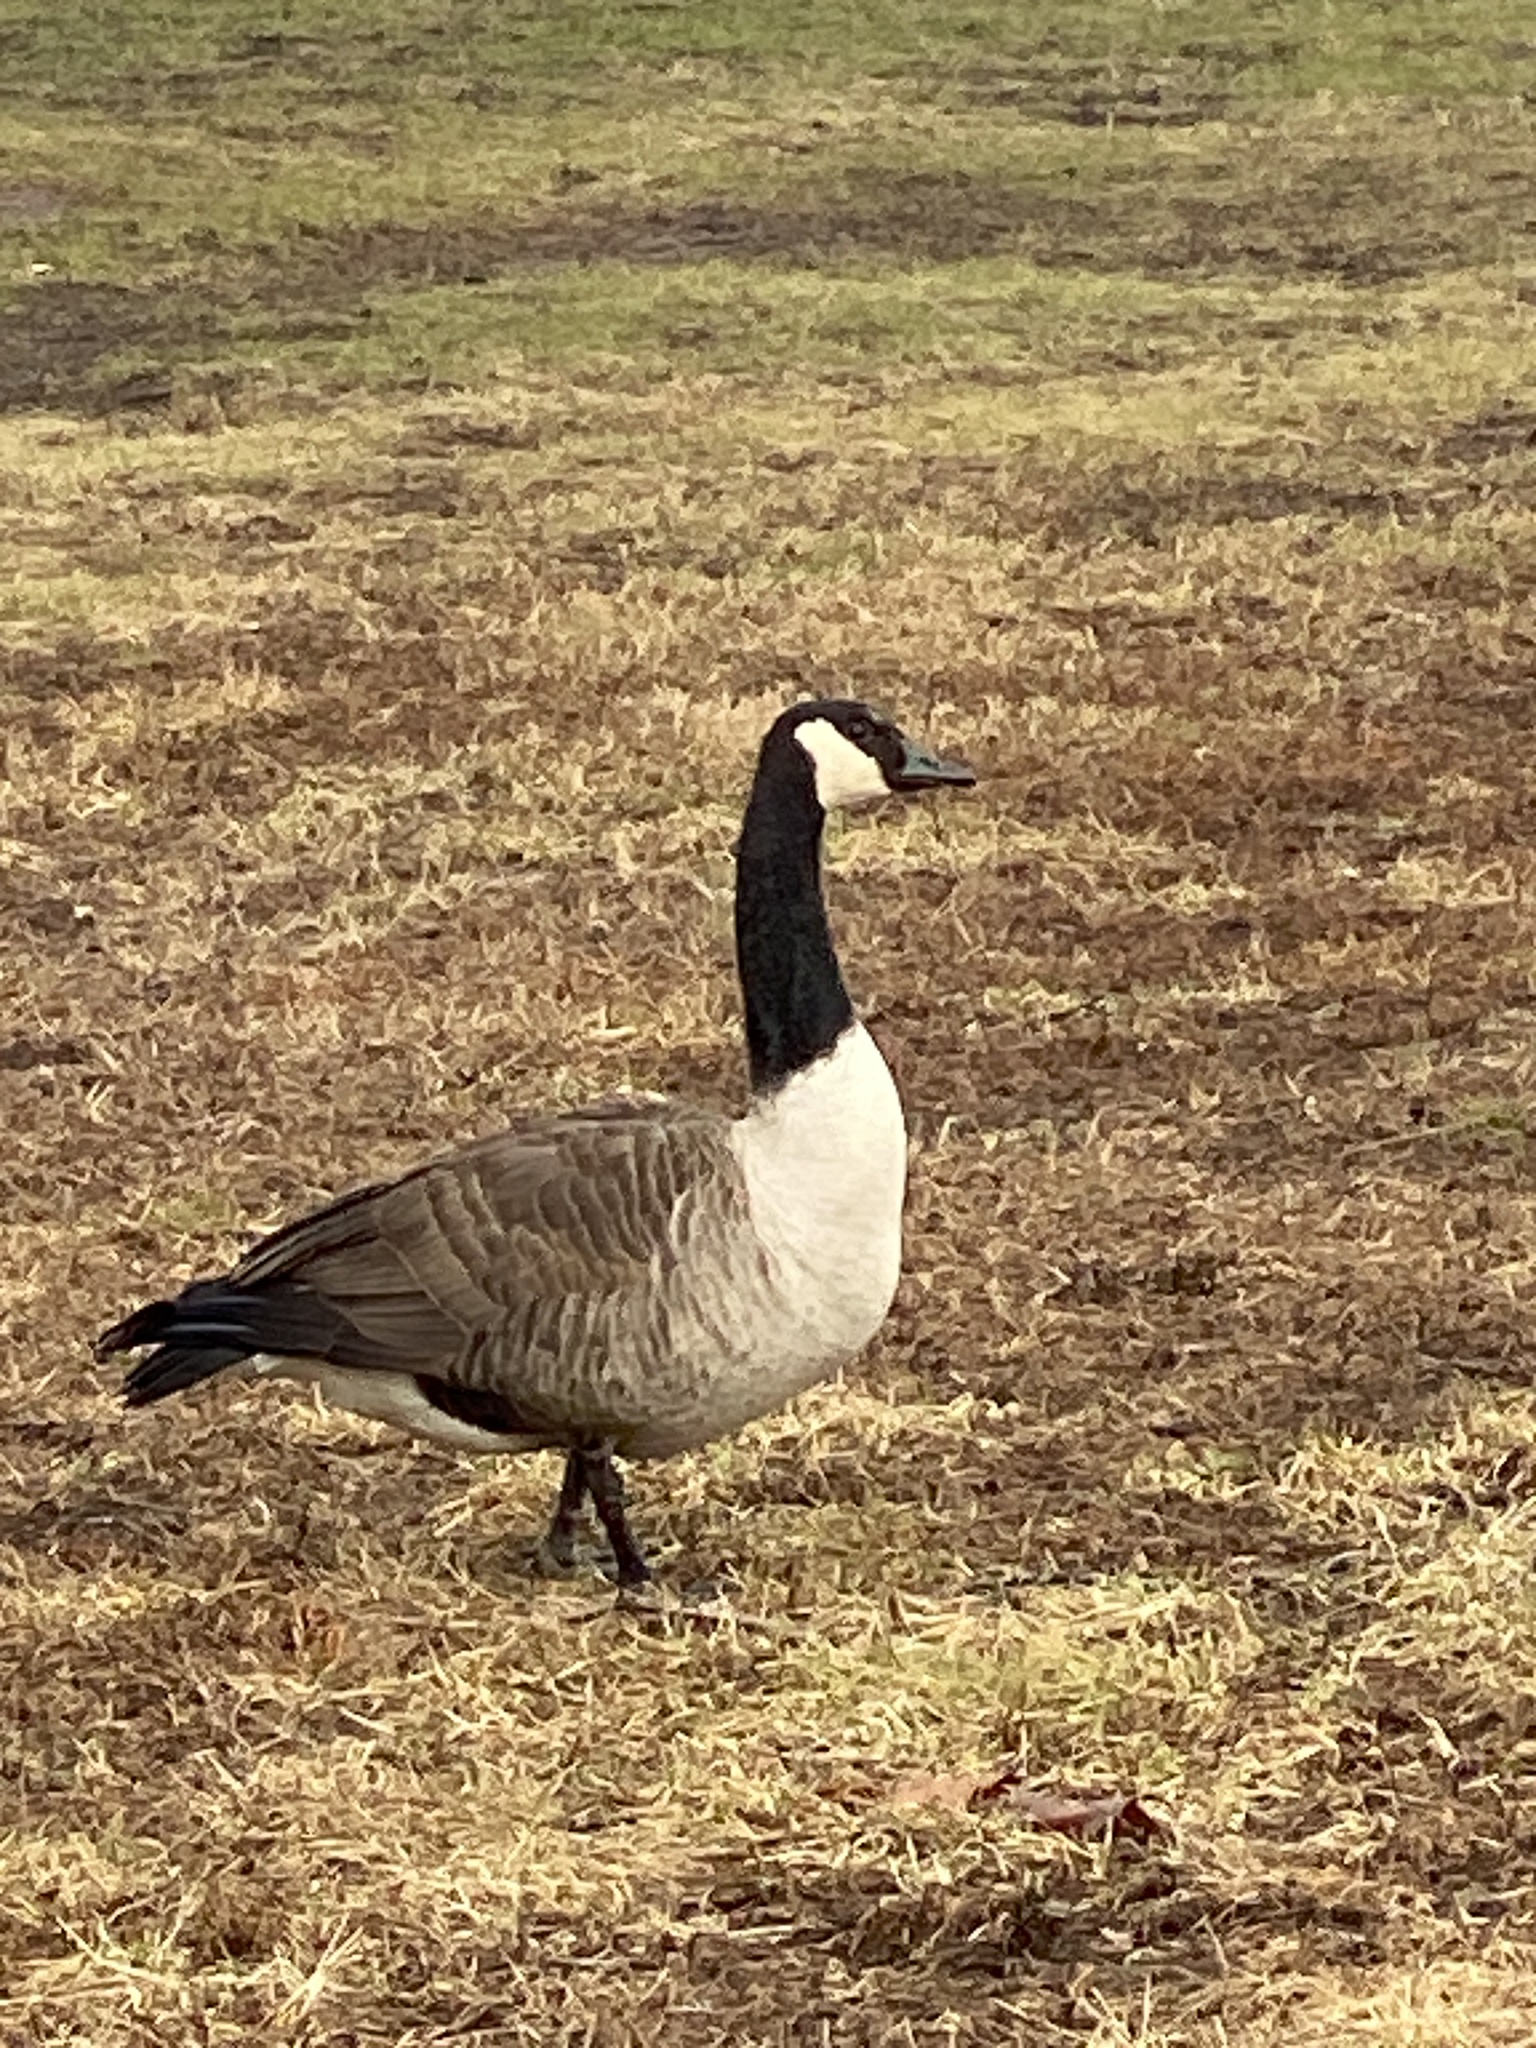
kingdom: Animalia
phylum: Chordata
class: Aves
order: Anseriformes
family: Anatidae
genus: Branta
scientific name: Branta canadensis
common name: Canada goose
